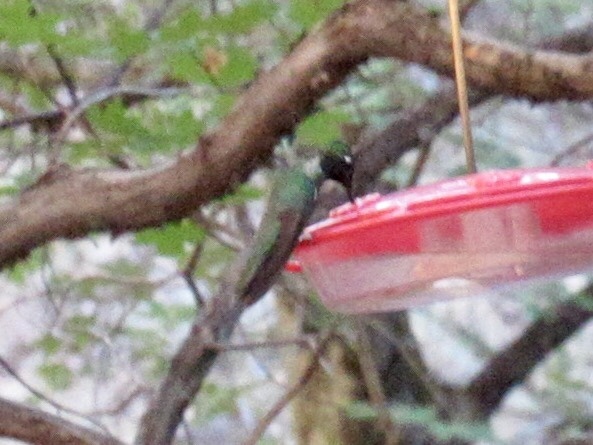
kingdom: Animalia
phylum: Chordata
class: Aves
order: Apodiformes
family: Trochilidae
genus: Eugenes
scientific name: Eugenes fulgens
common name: Magnificent hummingbird
